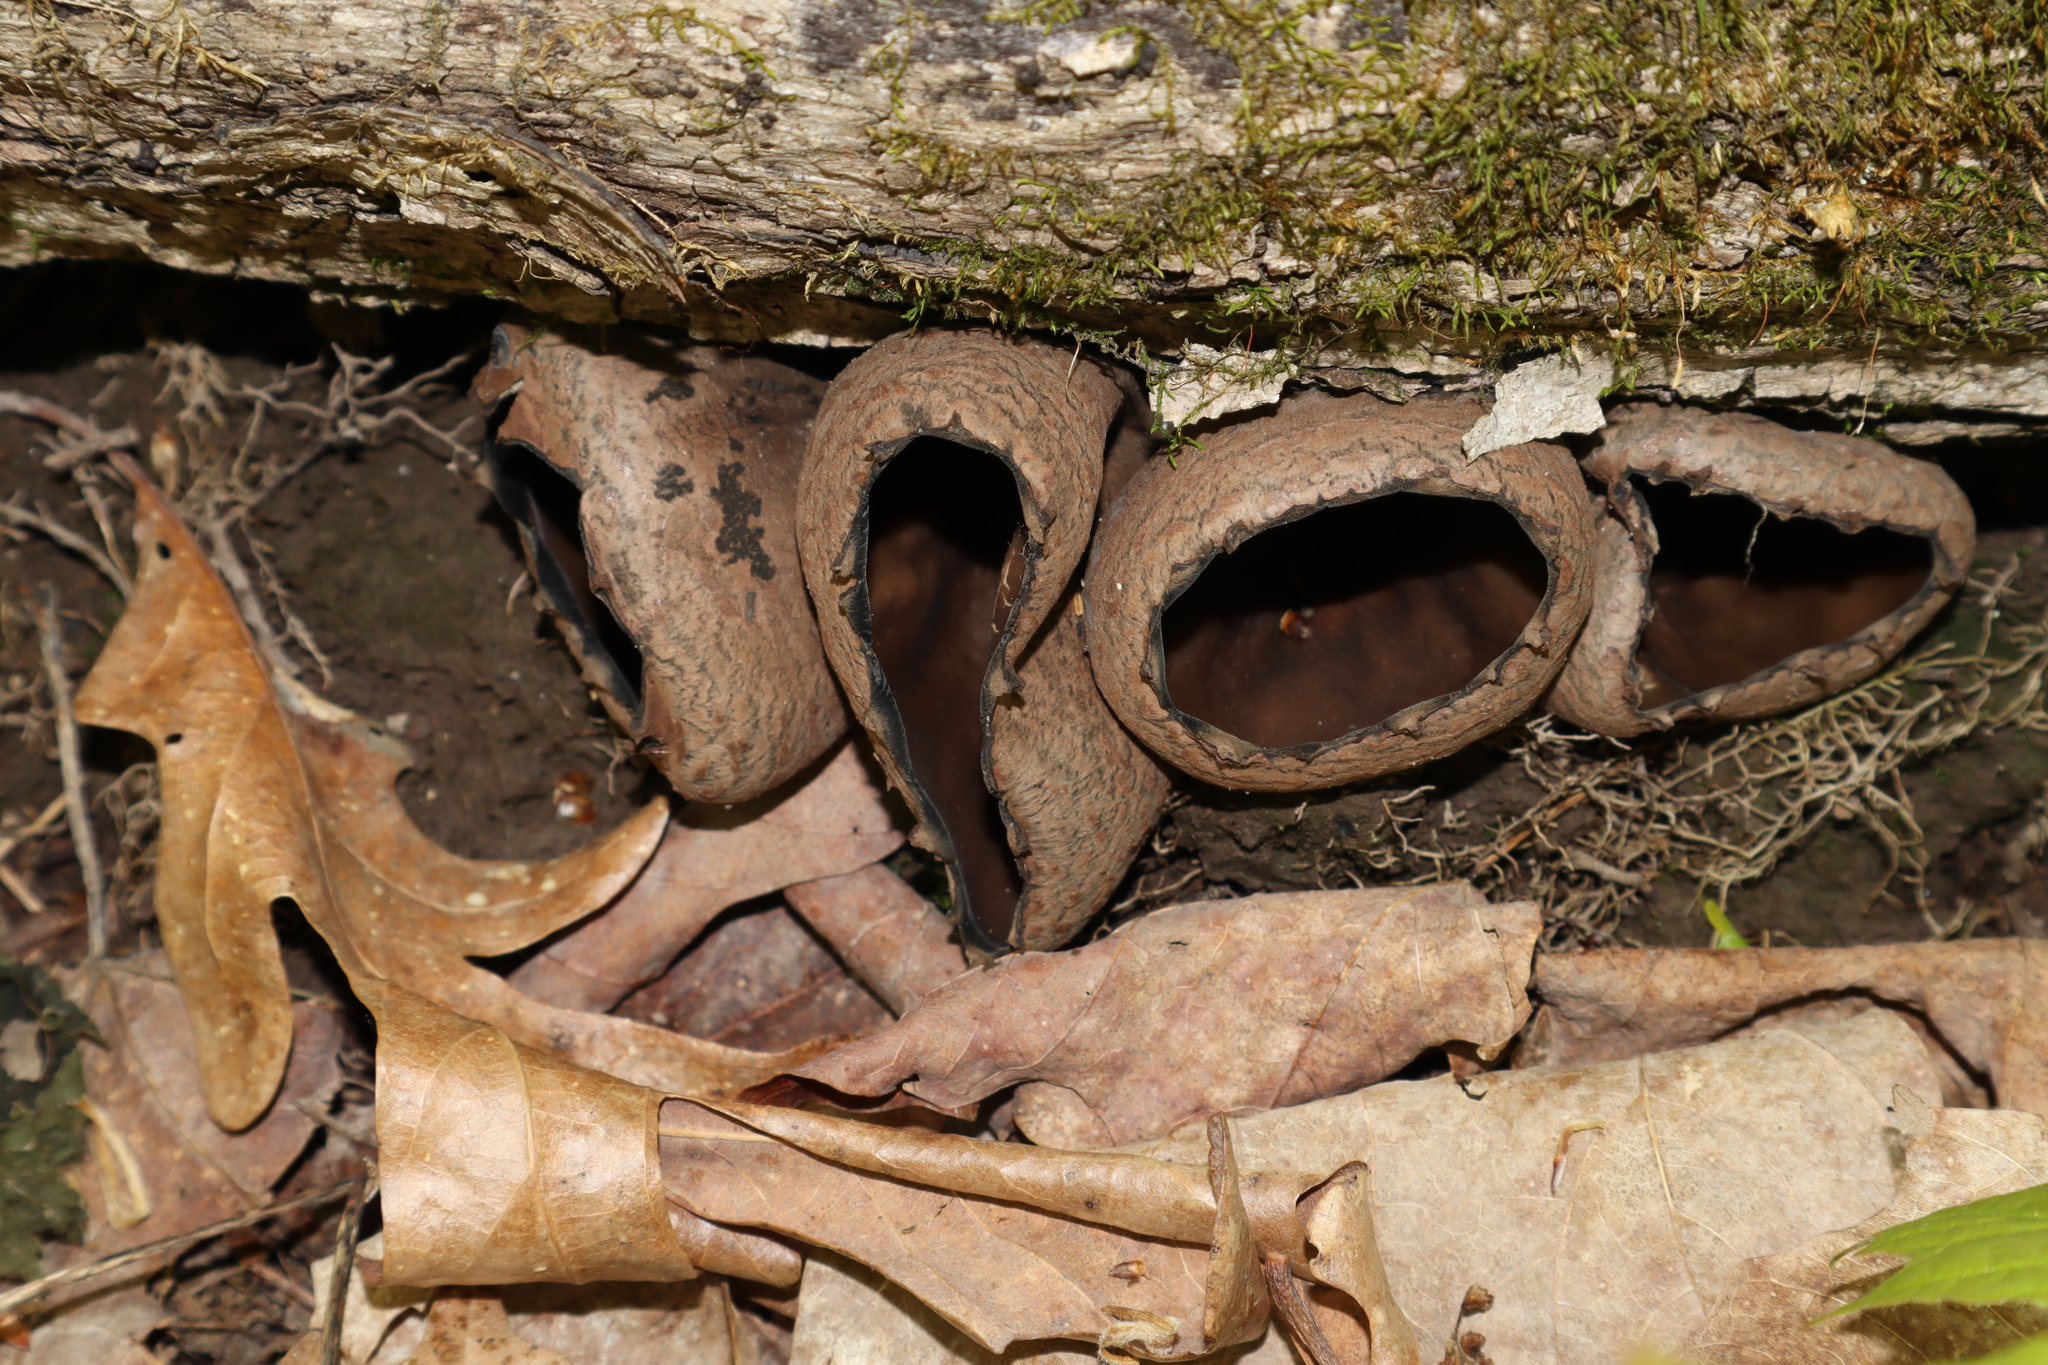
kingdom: Fungi
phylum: Ascomycota
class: Pezizomycetes
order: Pezizales
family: Sarcosomataceae
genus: Urnula
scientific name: Urnula craterium
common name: Devil's urn
